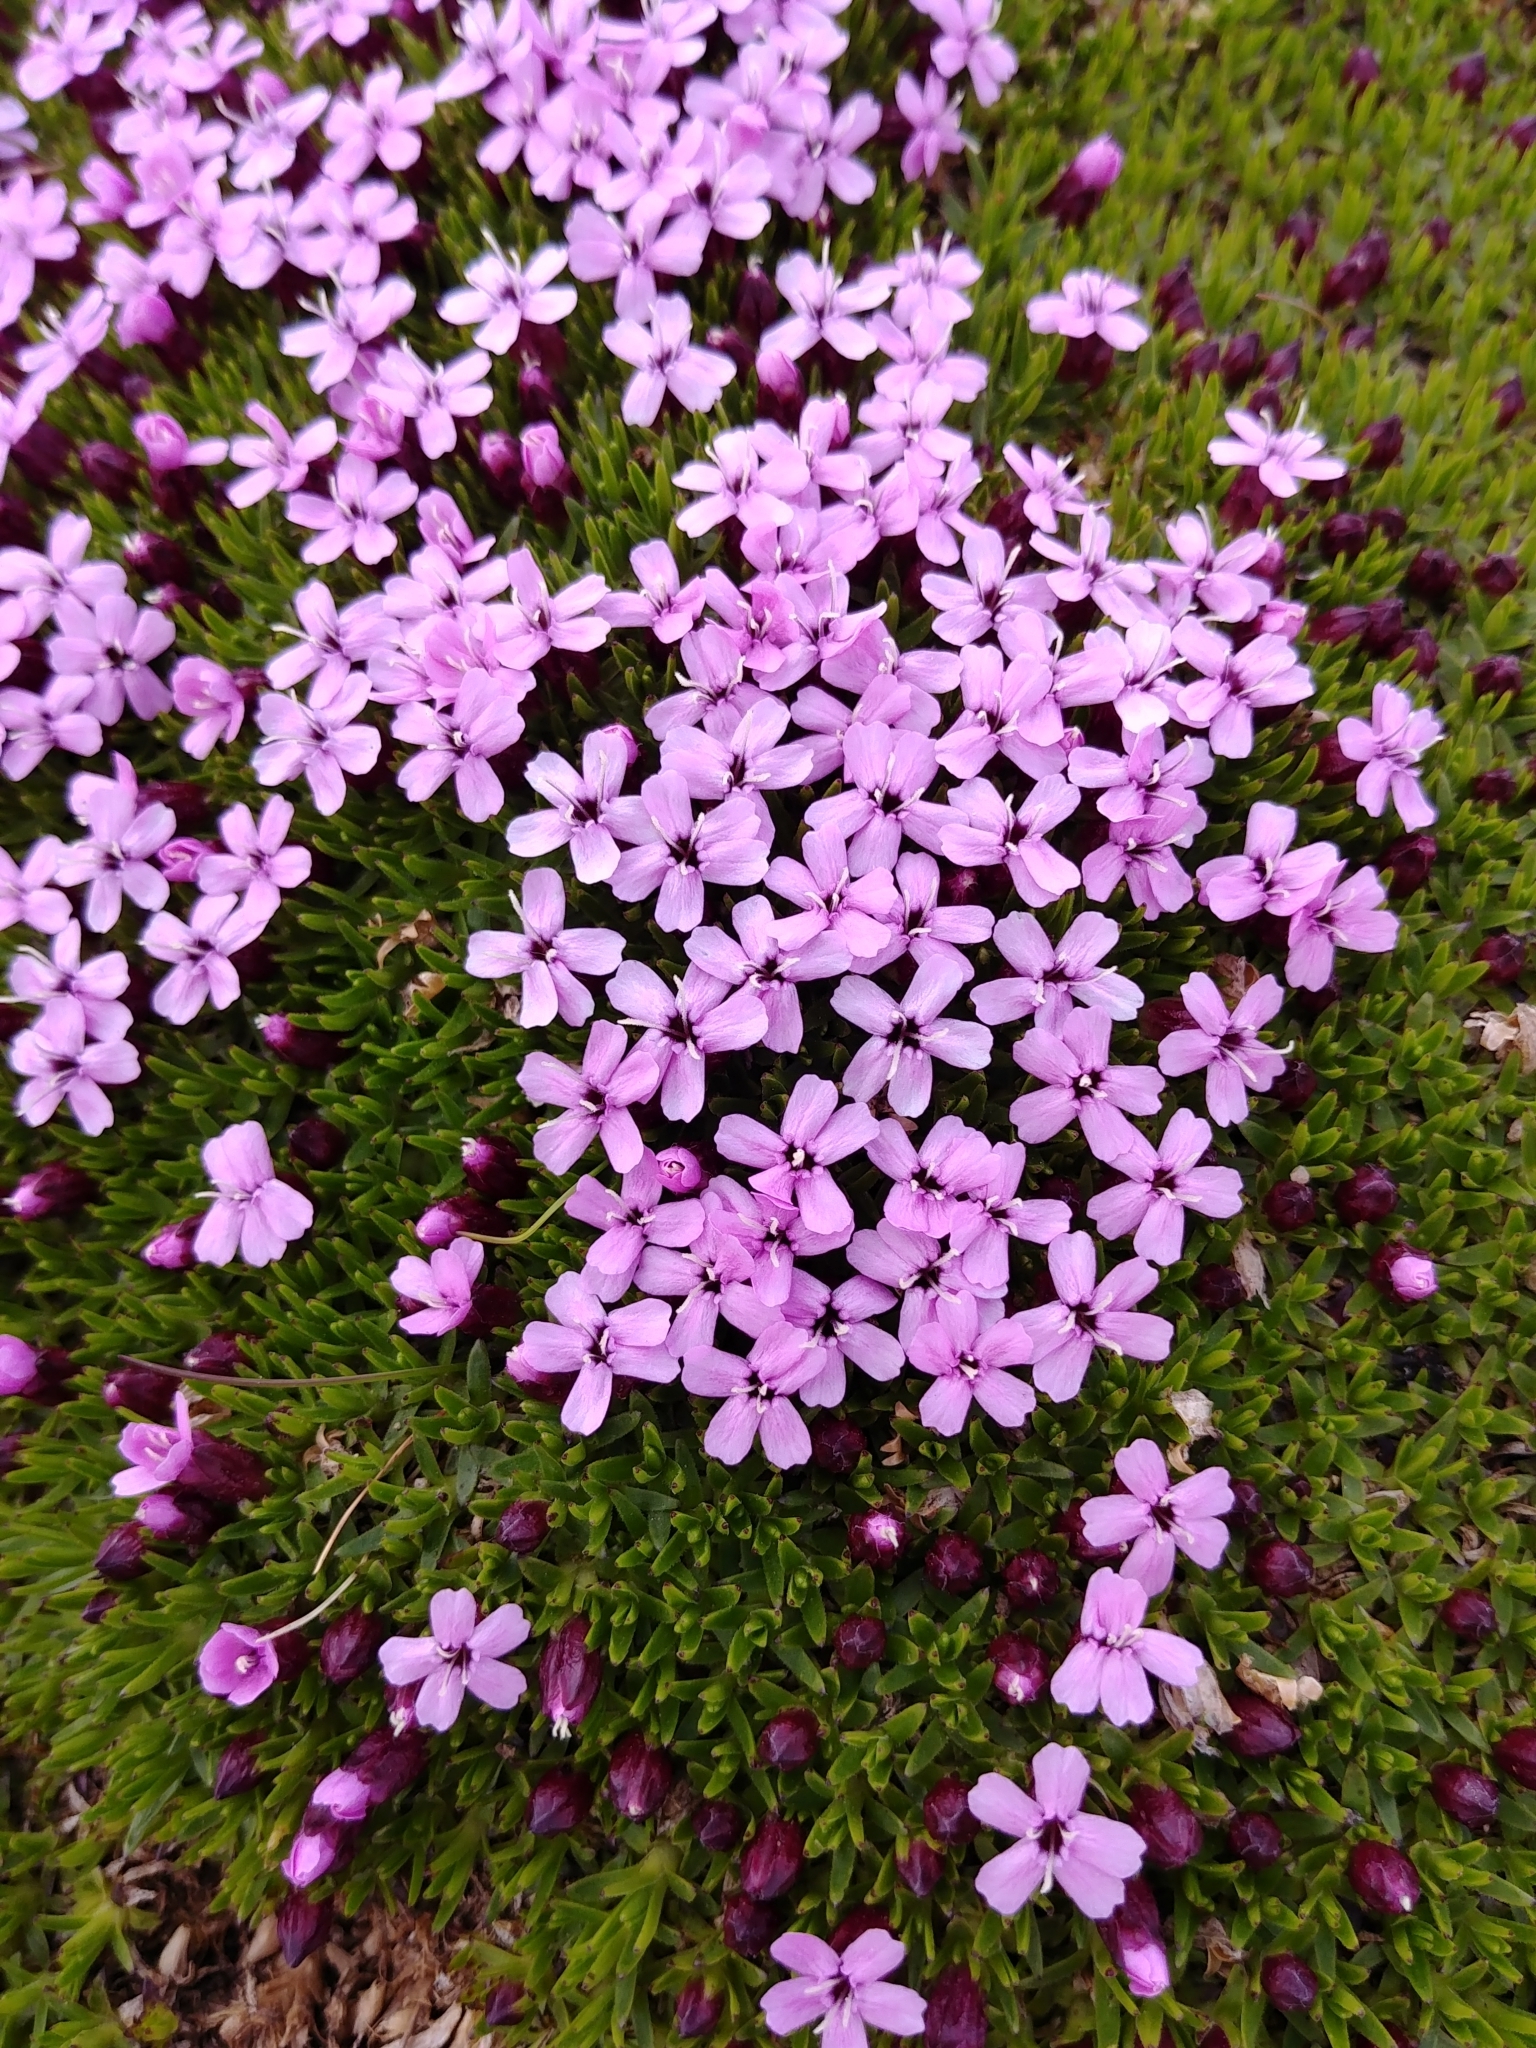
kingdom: Plantae
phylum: Tracheophyta
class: Magnoliopsida
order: Caryophyllales
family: Caryophyllaceae
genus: Silene
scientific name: Silene acaulis
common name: Moss campion
